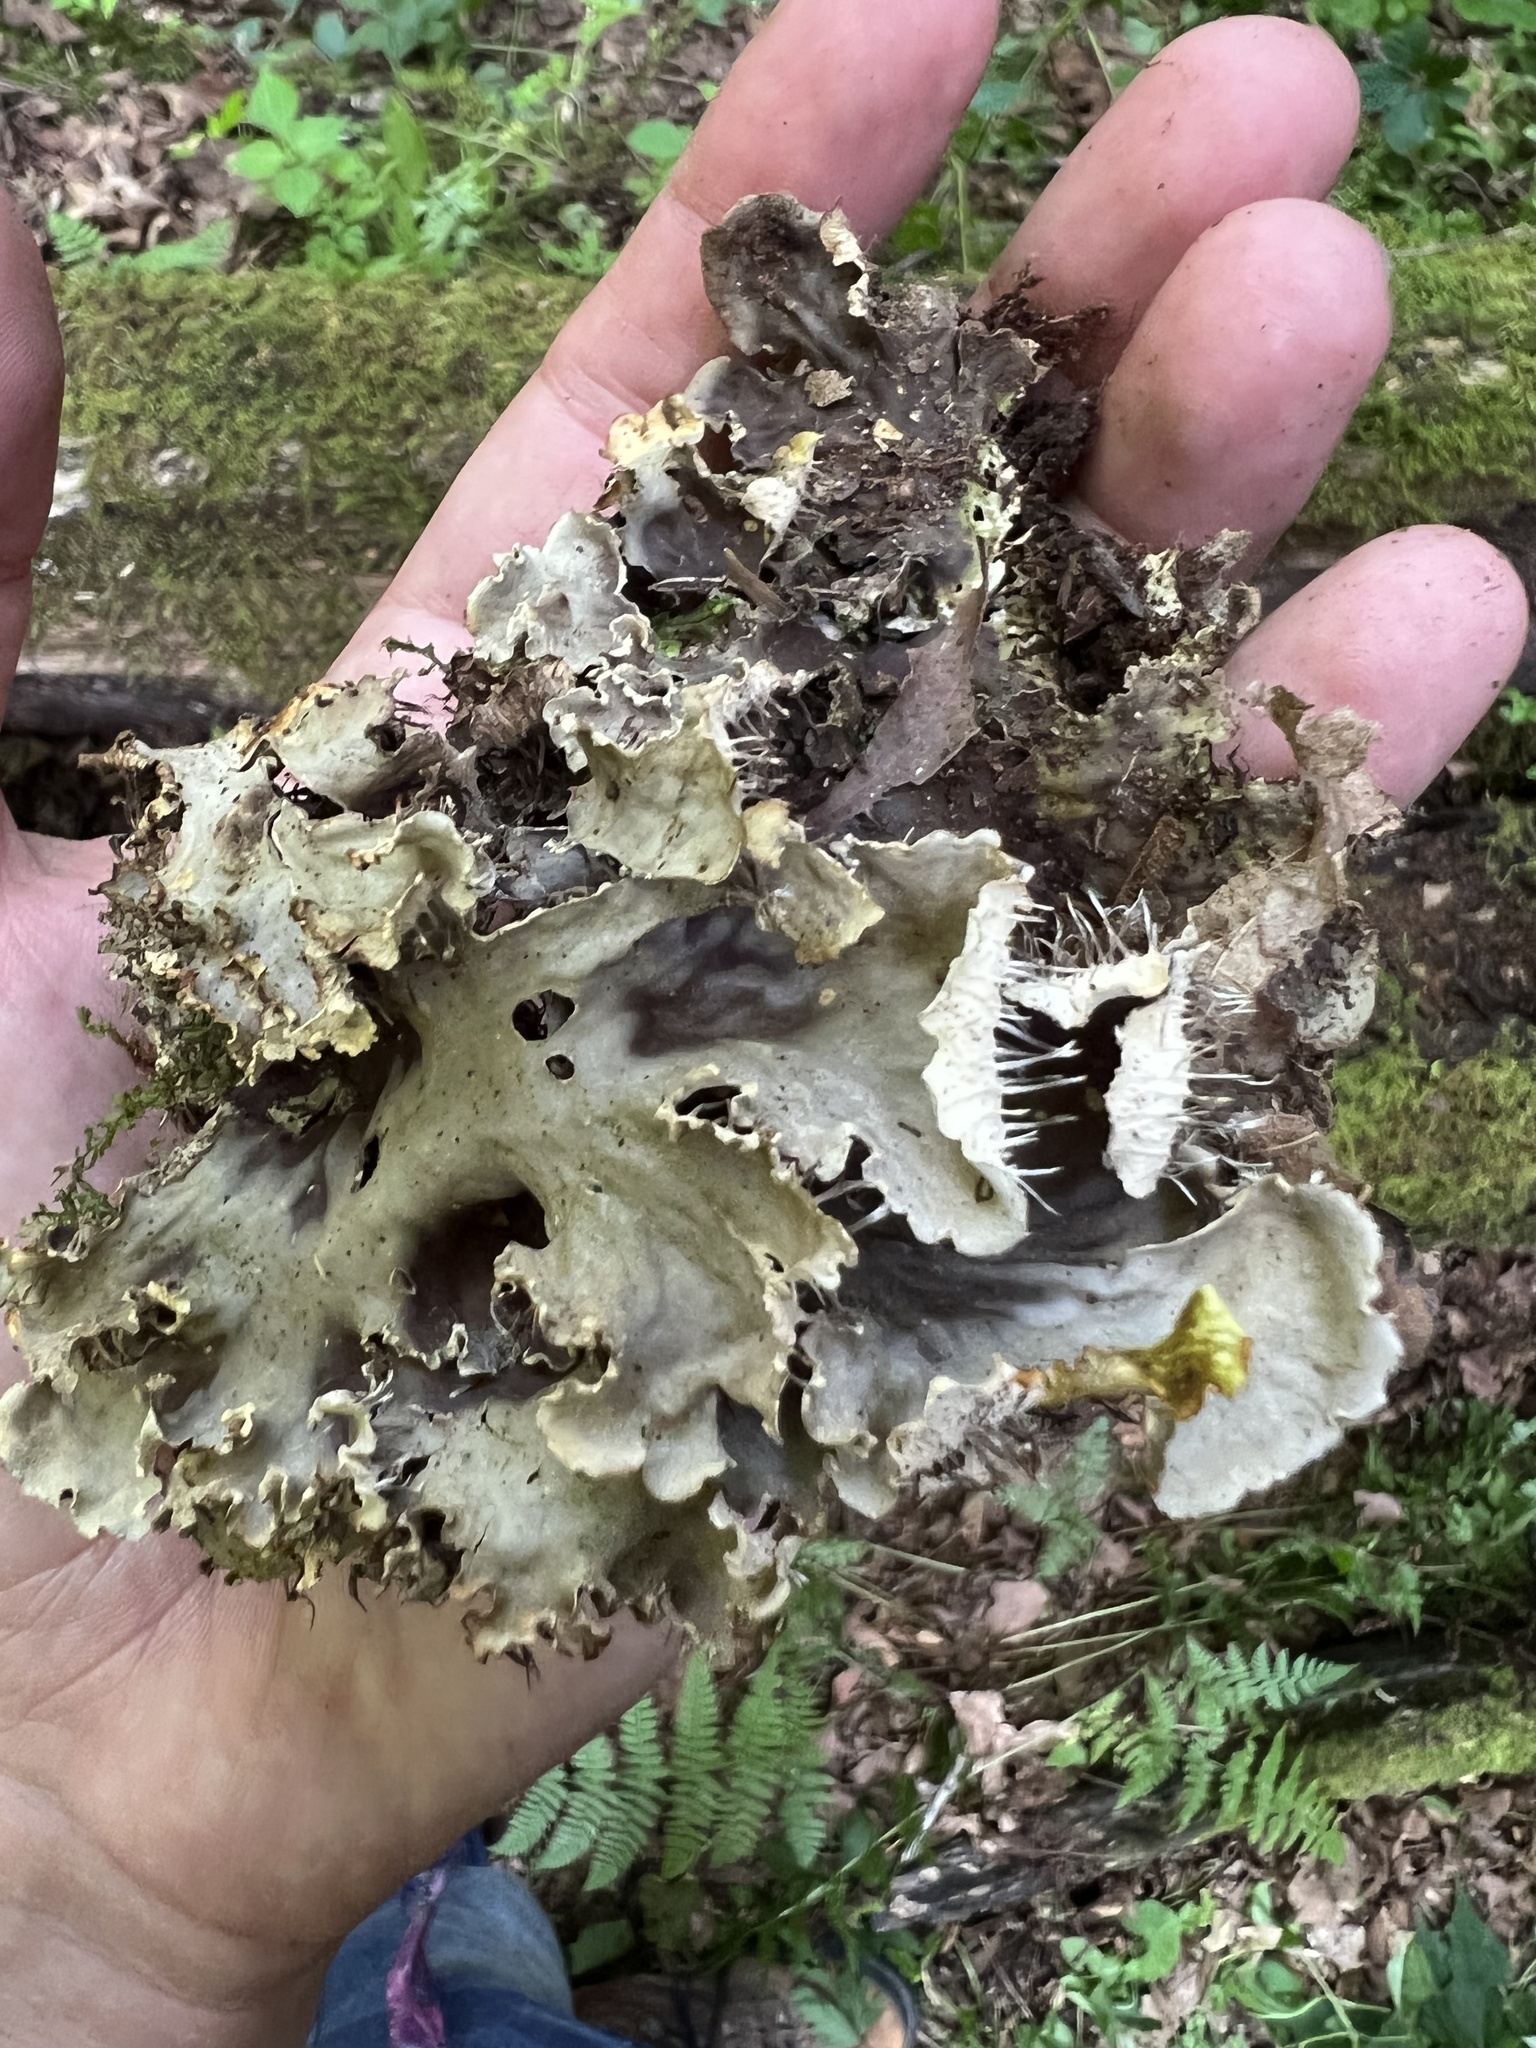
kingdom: Fungi
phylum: Ascomycota
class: Lecanoromycetes
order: Peltigerales
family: Peltigeraceae
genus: Peltigera
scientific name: Peltigera canina
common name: Dog pelt lichen
